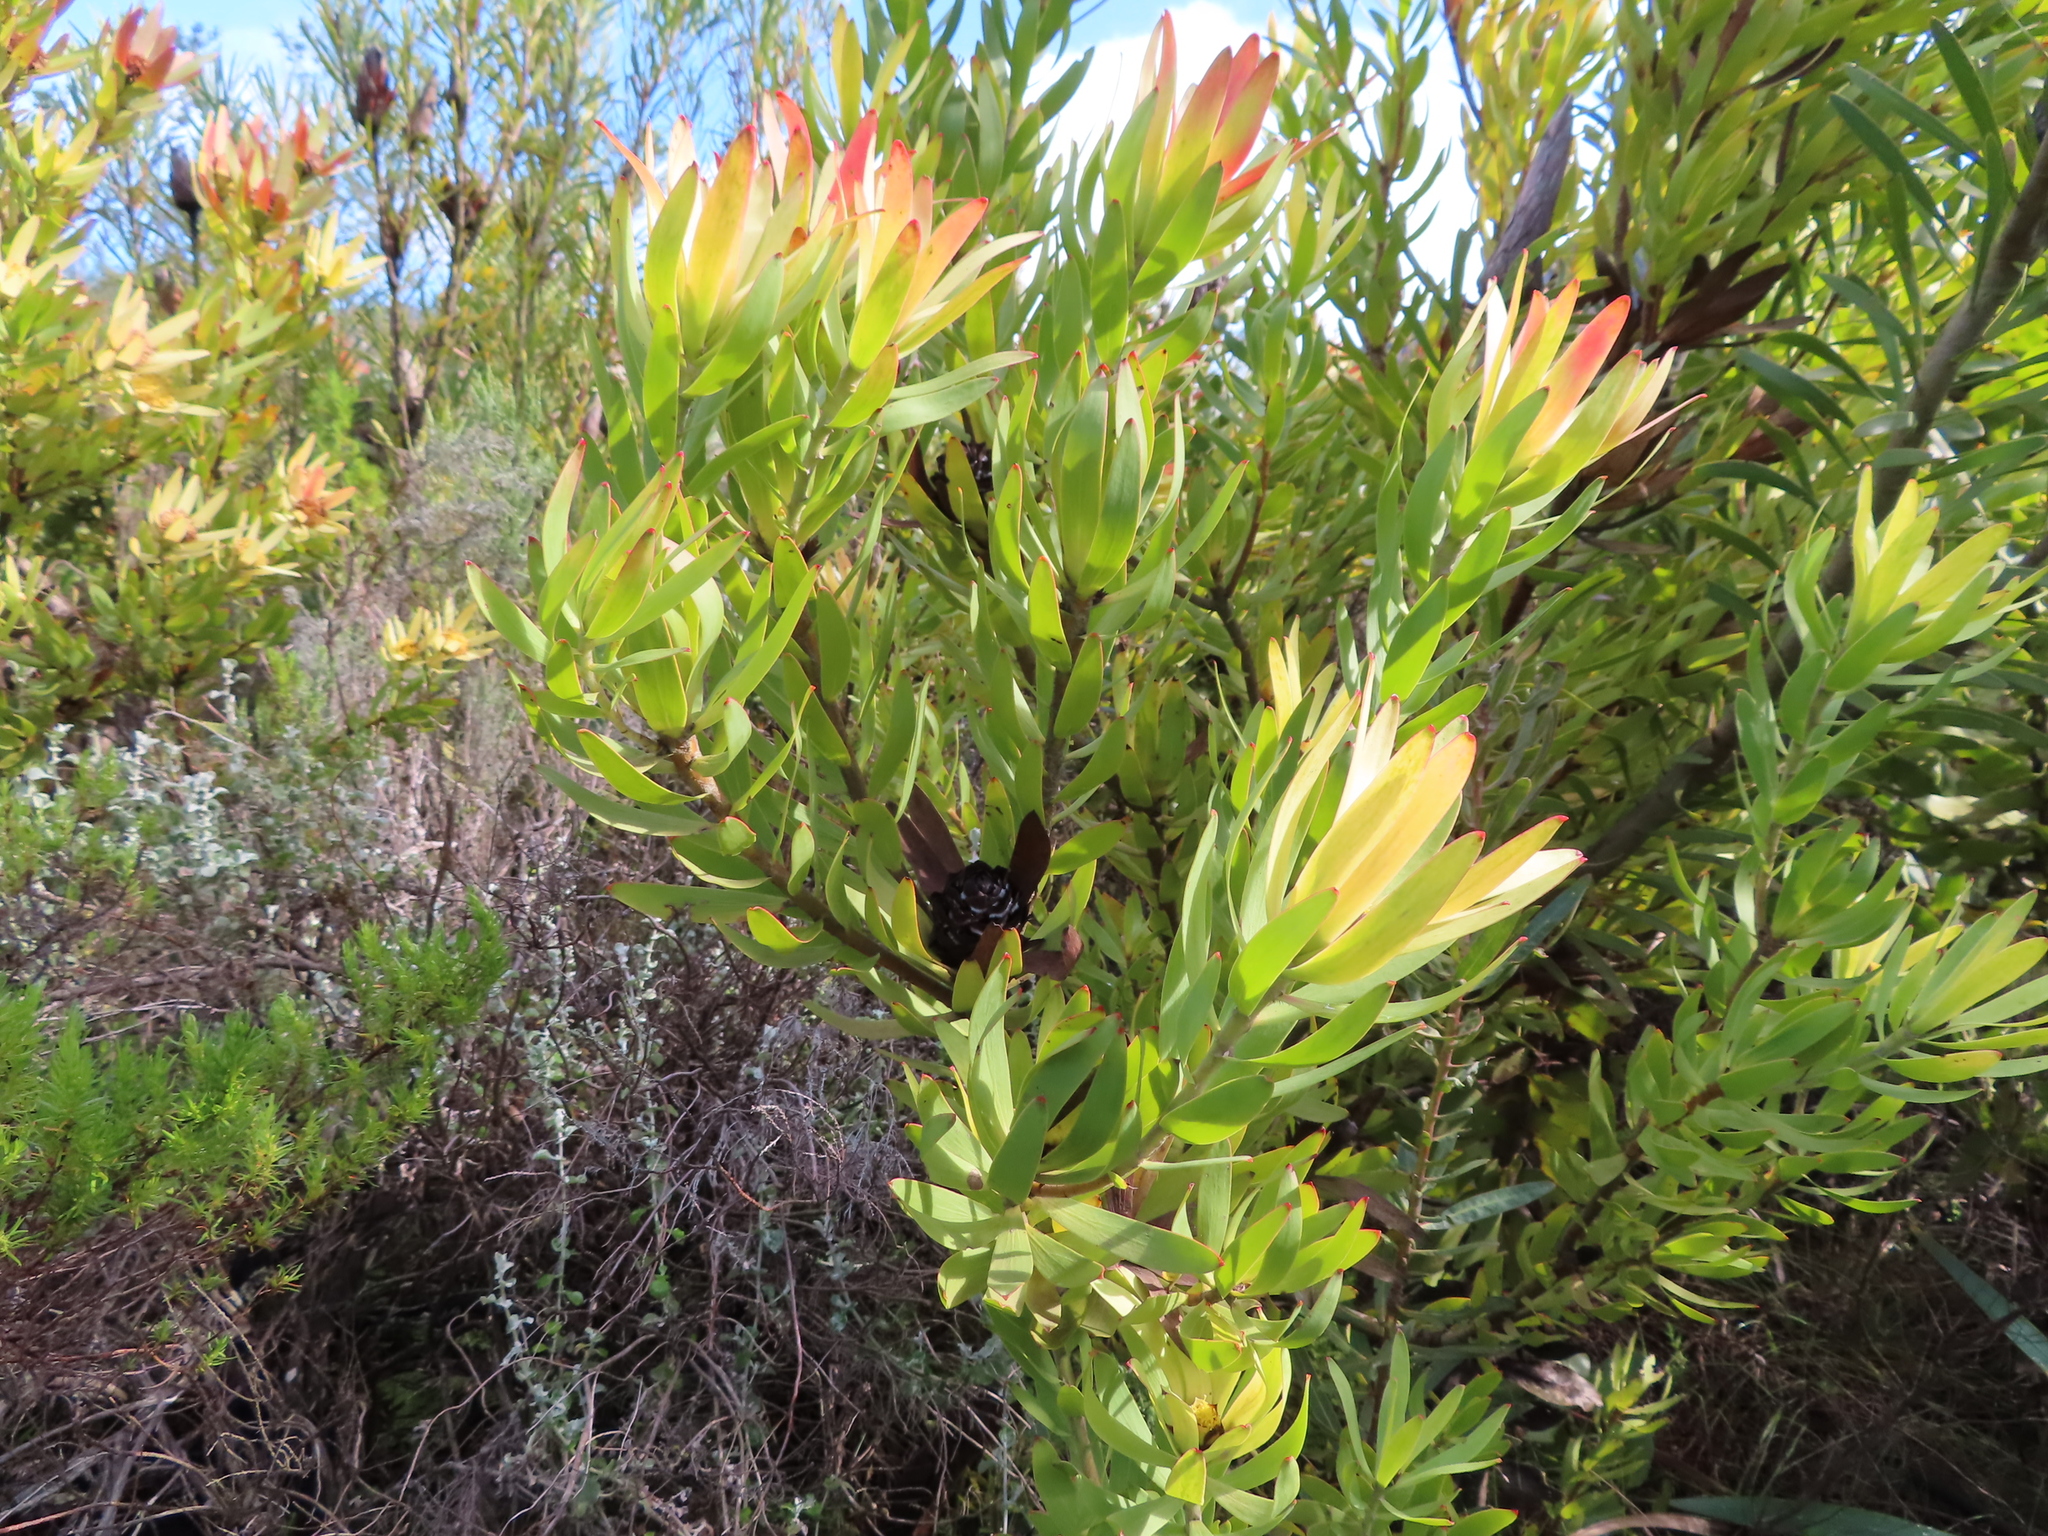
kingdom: Plantae
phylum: Tracheophyta
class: Magnoliopsida
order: Proteales
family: Proteaceae
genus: Leucadendron
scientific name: Leucadendron sessile
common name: Western sunbush
